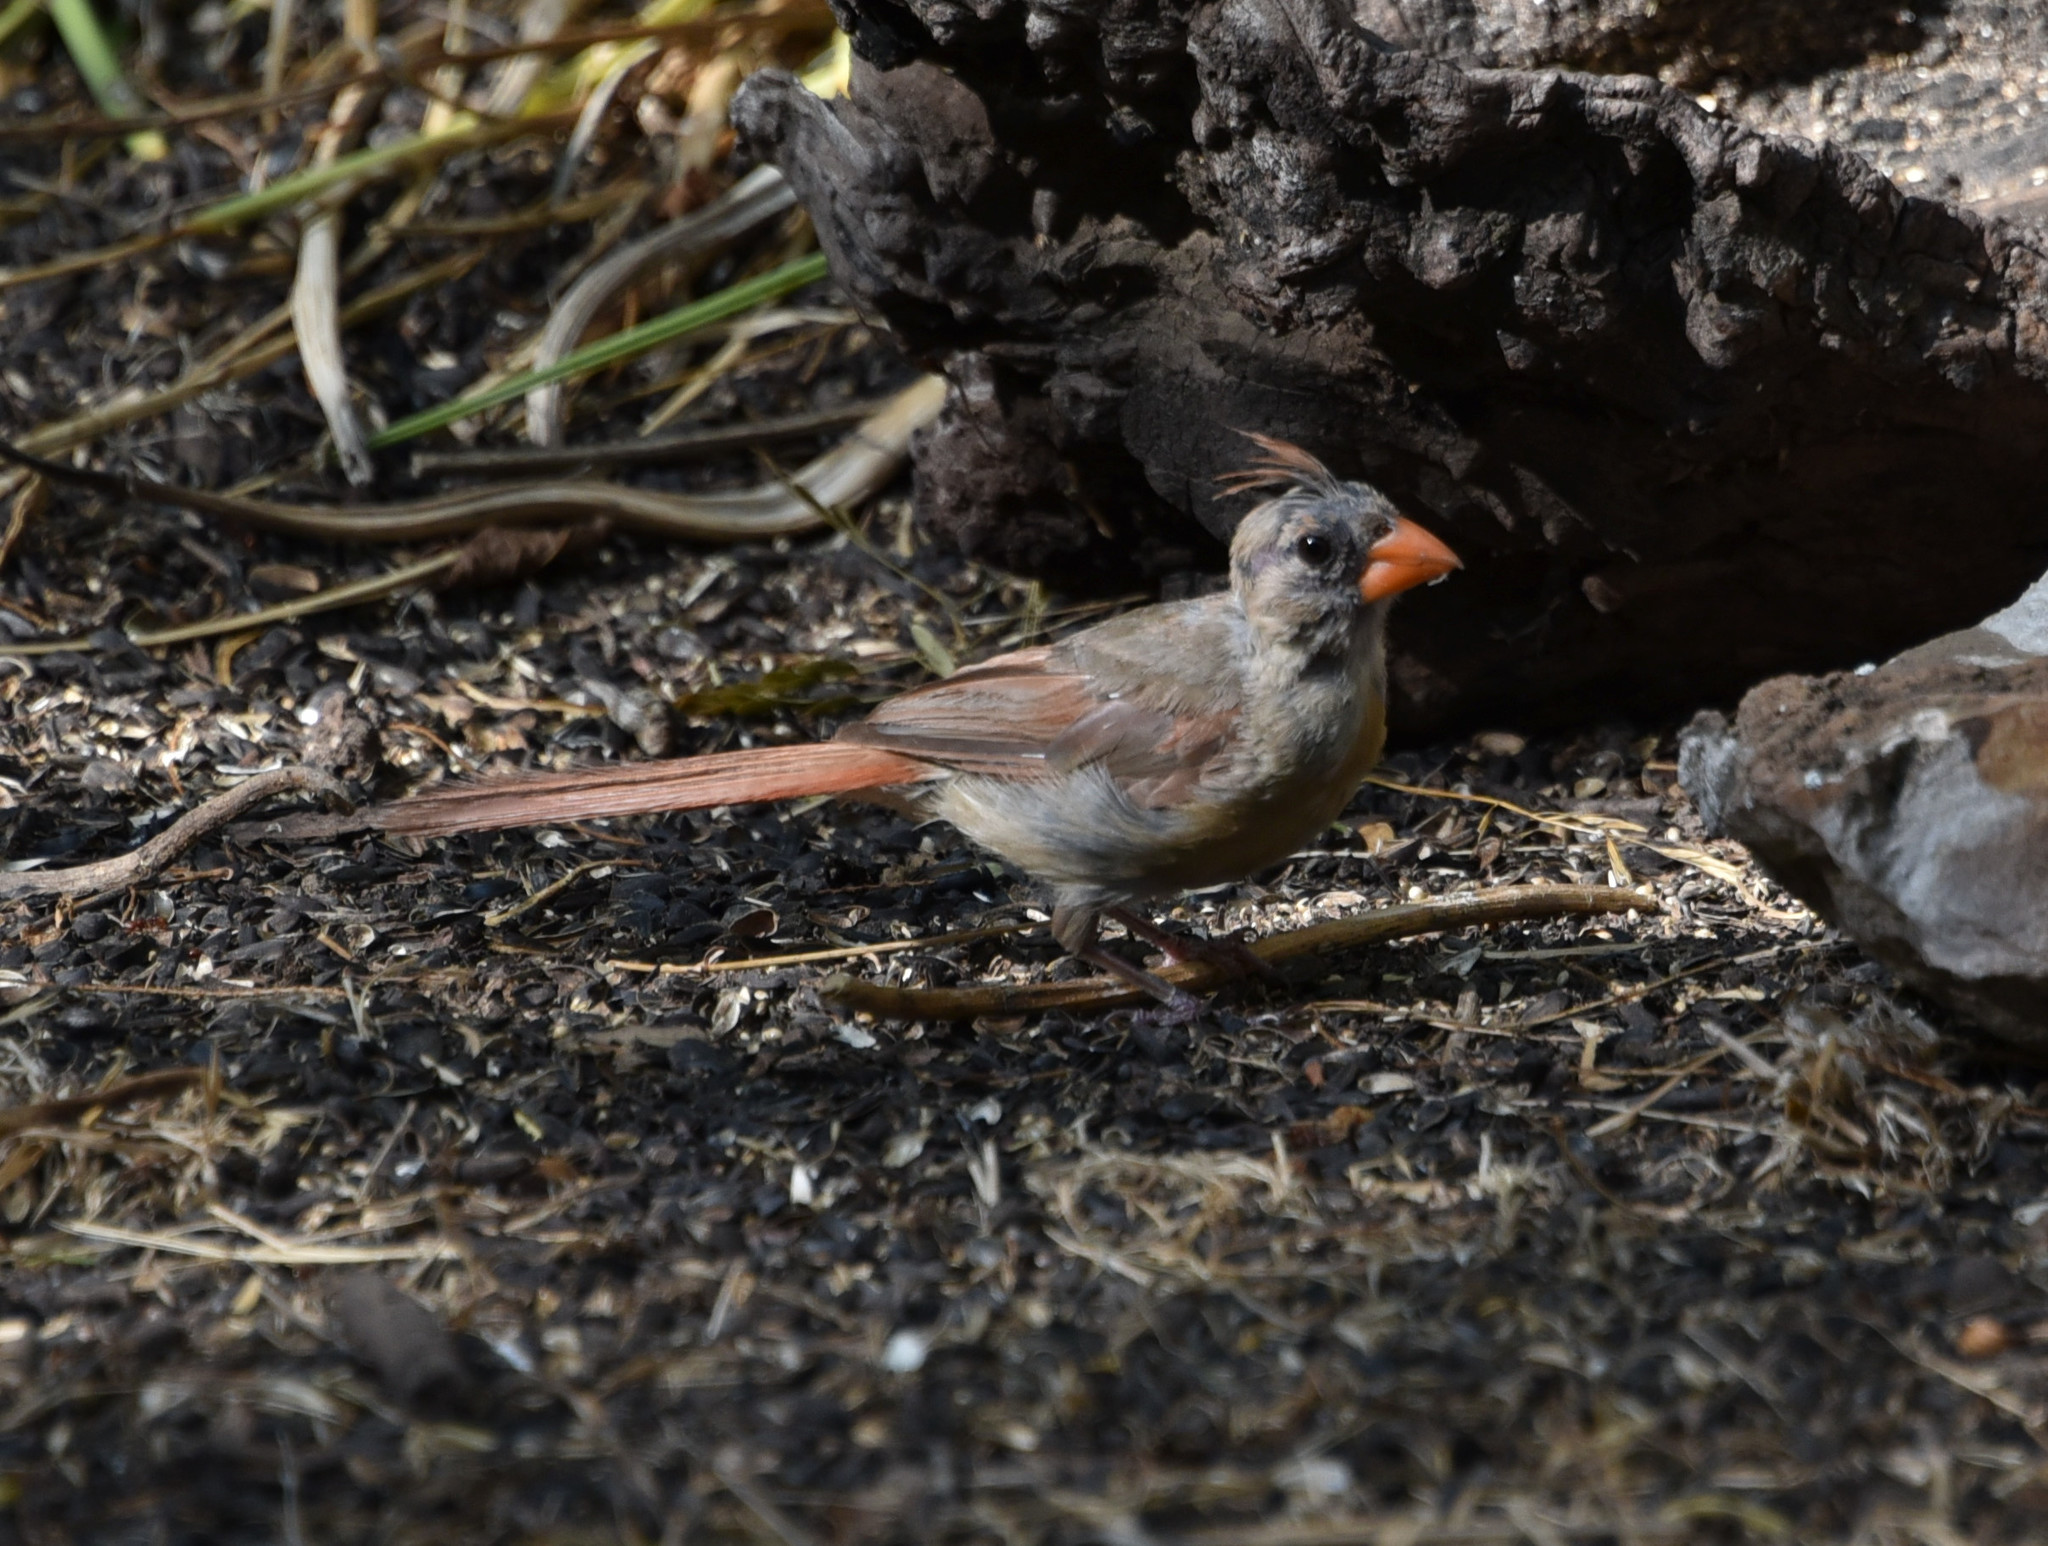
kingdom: Animalia
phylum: Chordata
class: Aves
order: Passeriformes
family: Cardinalidae
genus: Cardinalis
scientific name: Cardinalis cardinalis
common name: Northern cardinal
